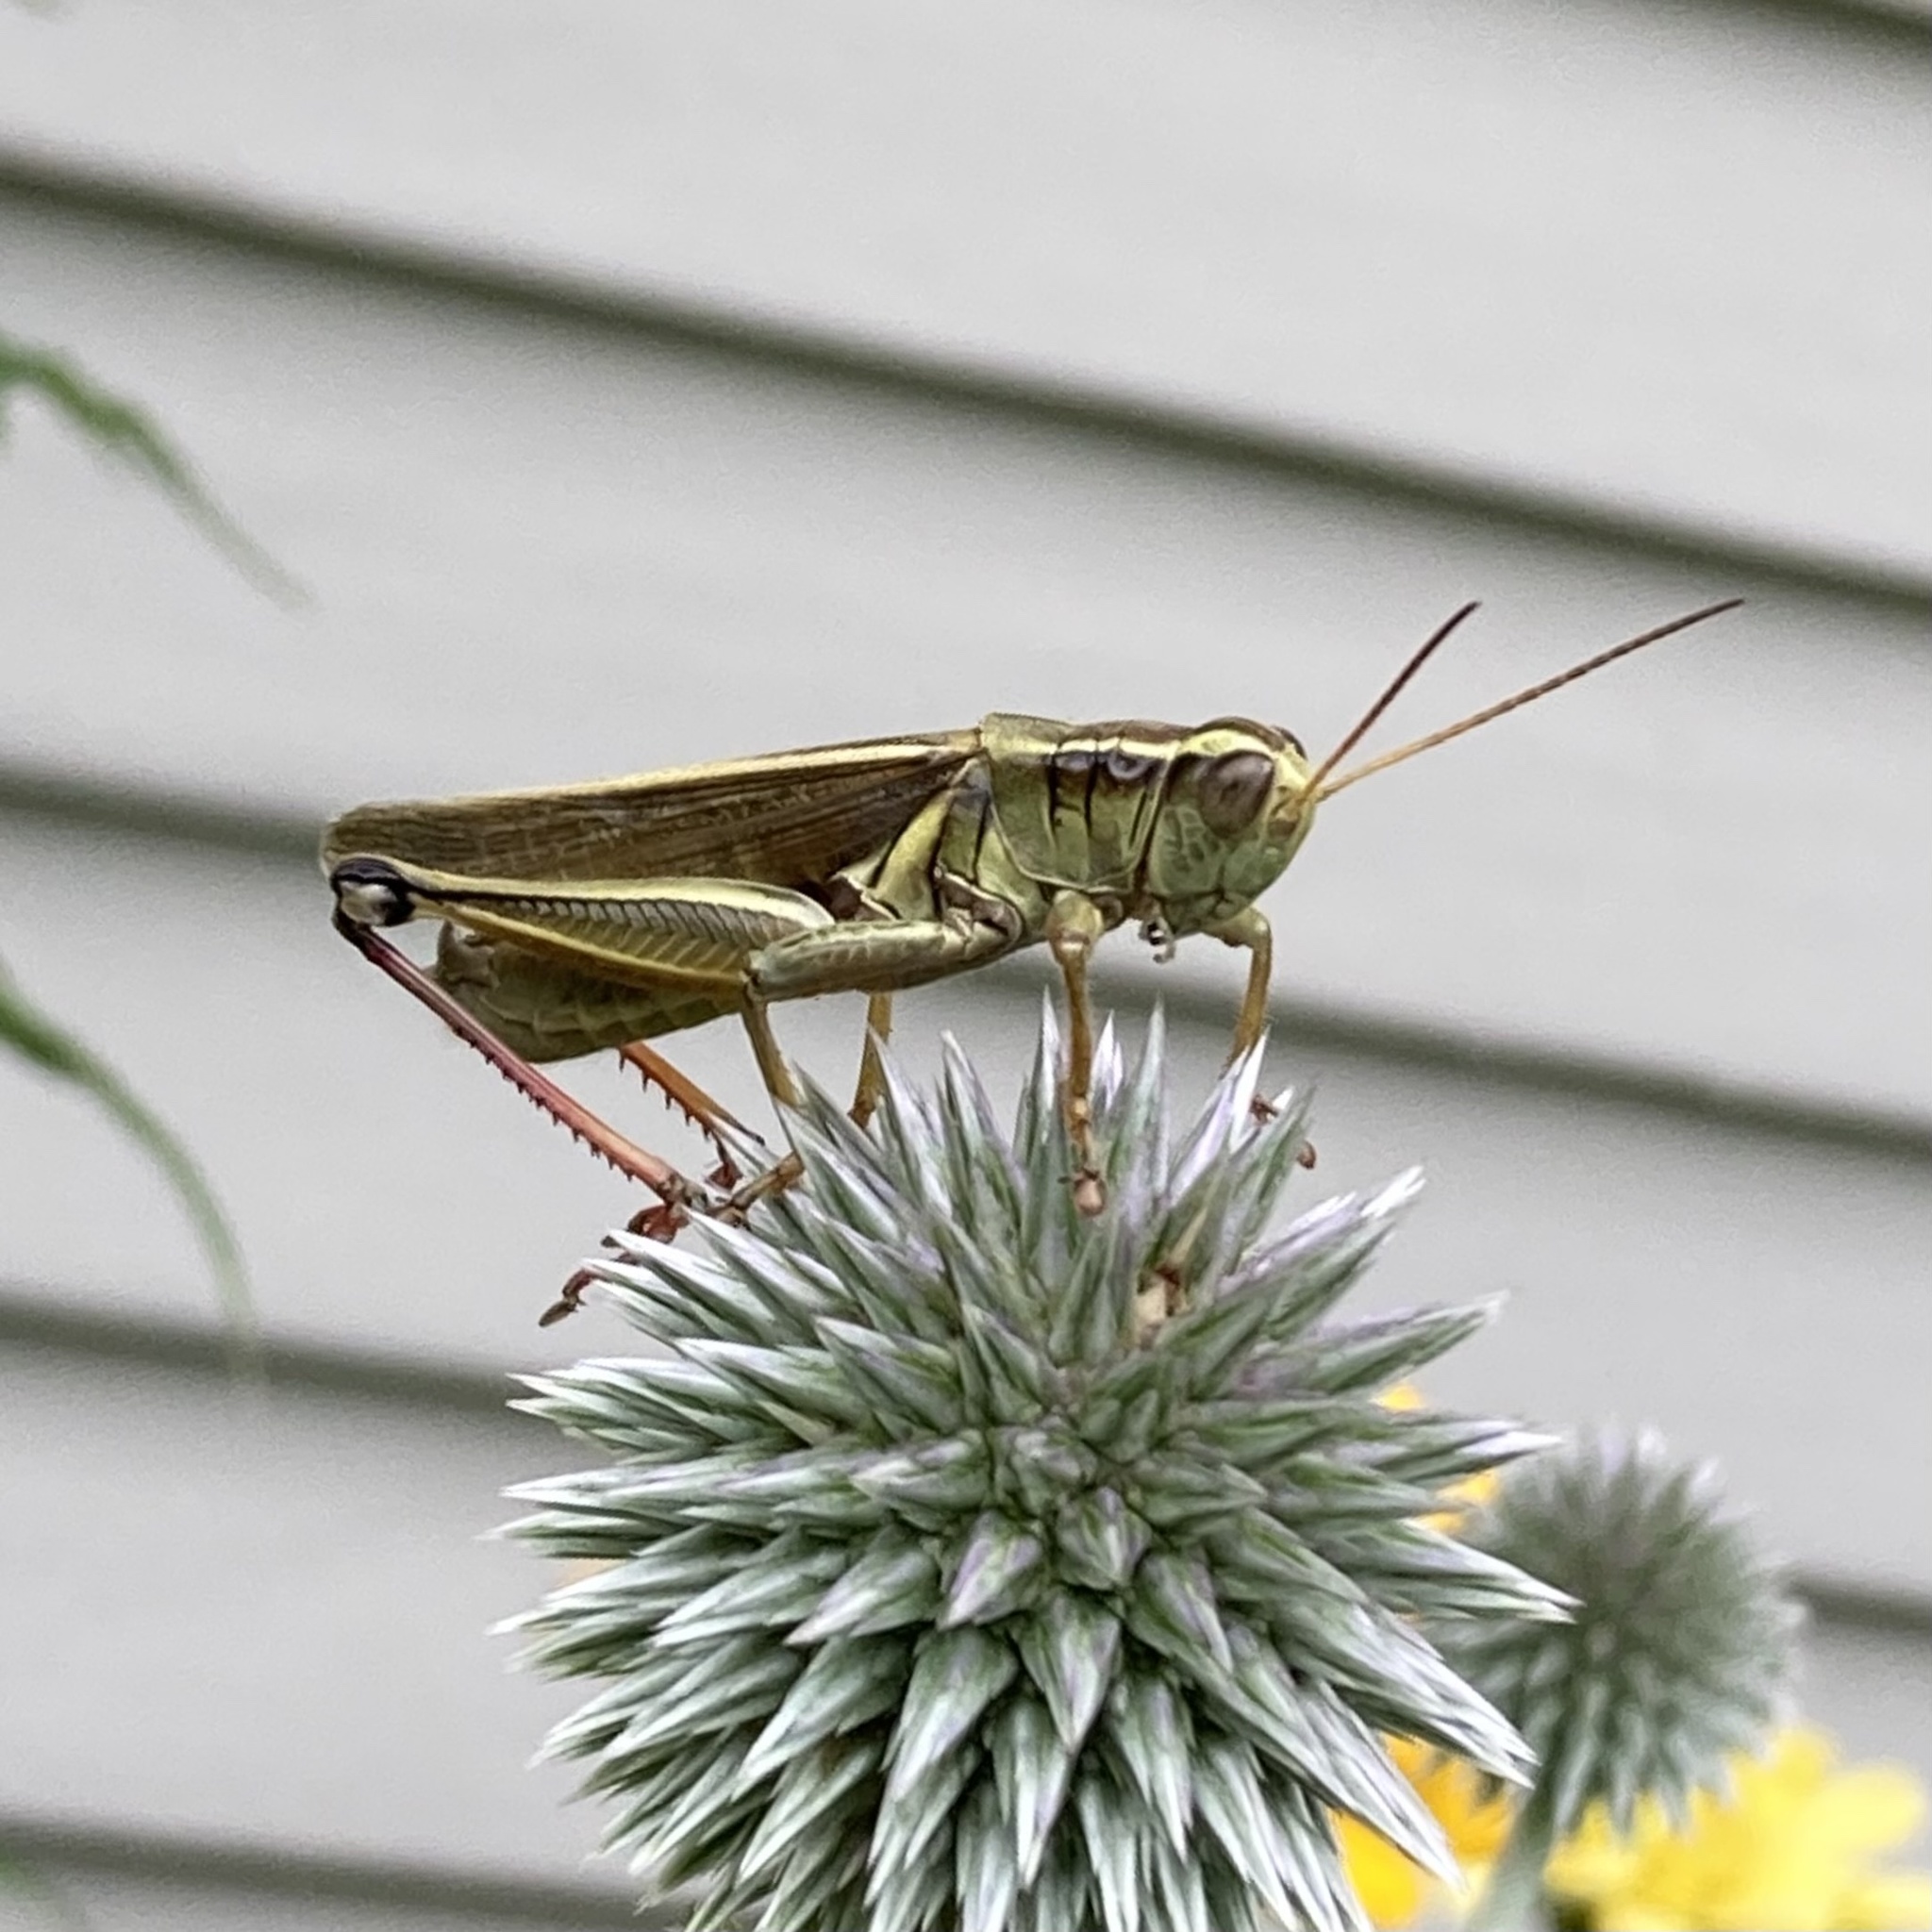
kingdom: Animalia
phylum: Arthropoda
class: Insecta
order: Orthoptera
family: Acrididae
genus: Melanoplus
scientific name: Melanoplus bivittatus
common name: Two-striped grasshopper
